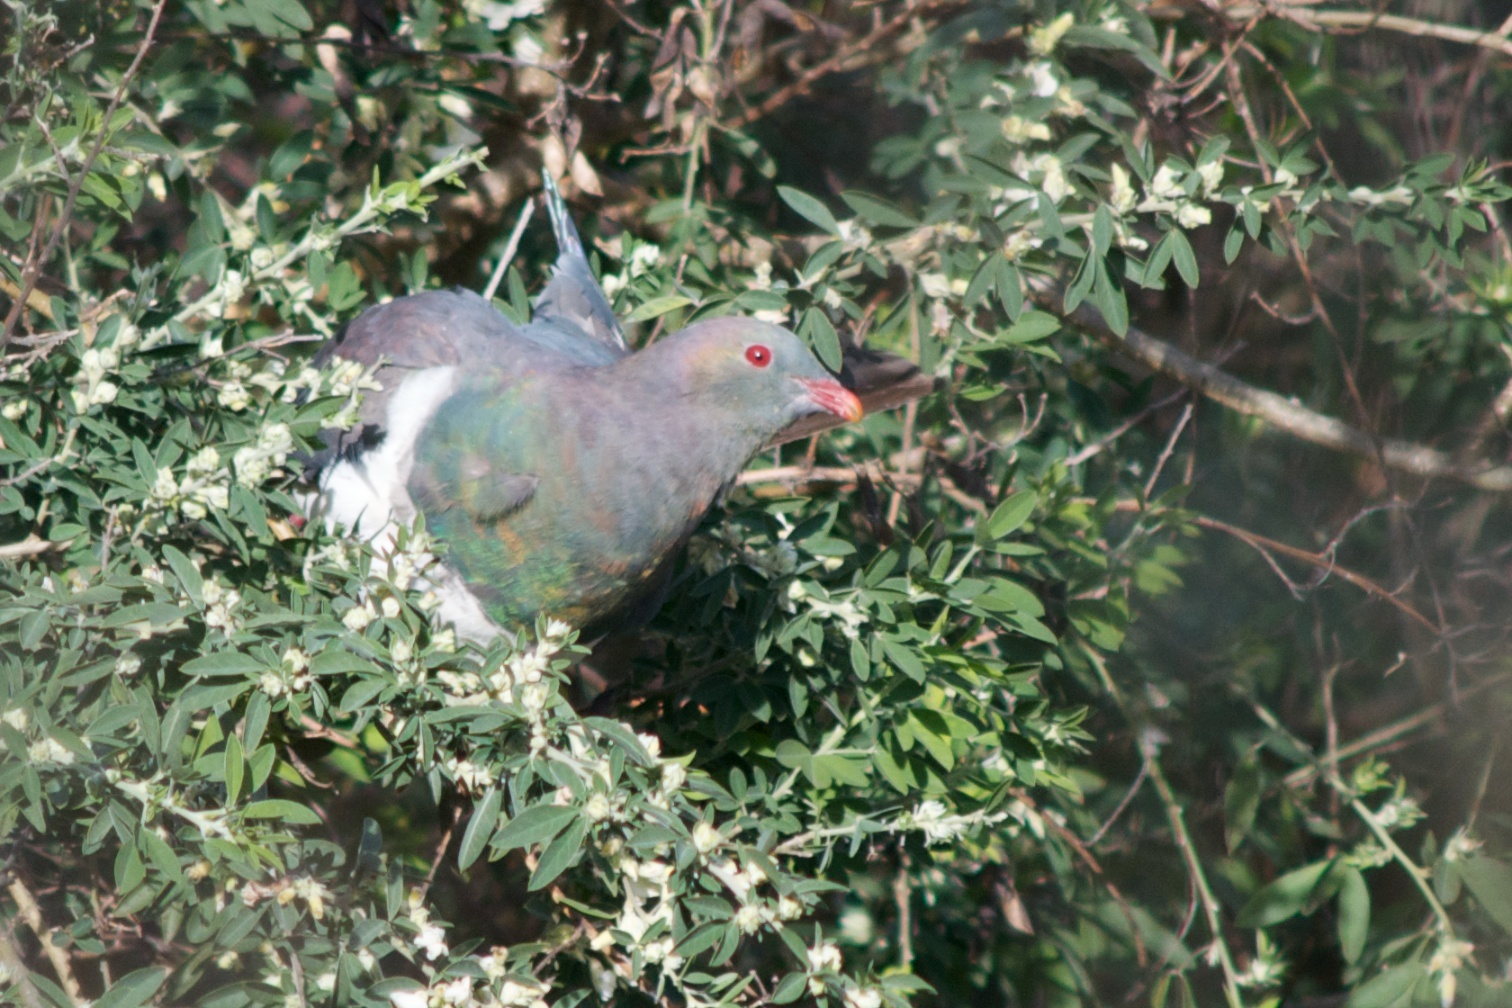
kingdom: Animalia
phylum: Chordata
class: Aves
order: Columbiformes
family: Columbidae
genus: Hemiphaga
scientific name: Hemiphaga novaeseelandiae
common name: New zealand pigeon
